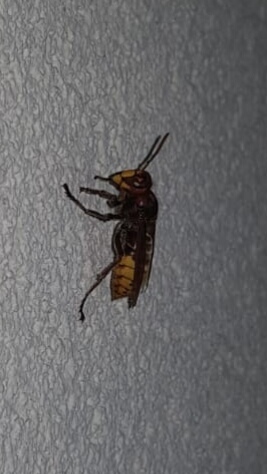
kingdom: Animalia
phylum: Arthropoda
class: Insecta
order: Hymenoptera
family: Vespidae
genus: Vespa
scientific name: Vespa crabro
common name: Hornet
